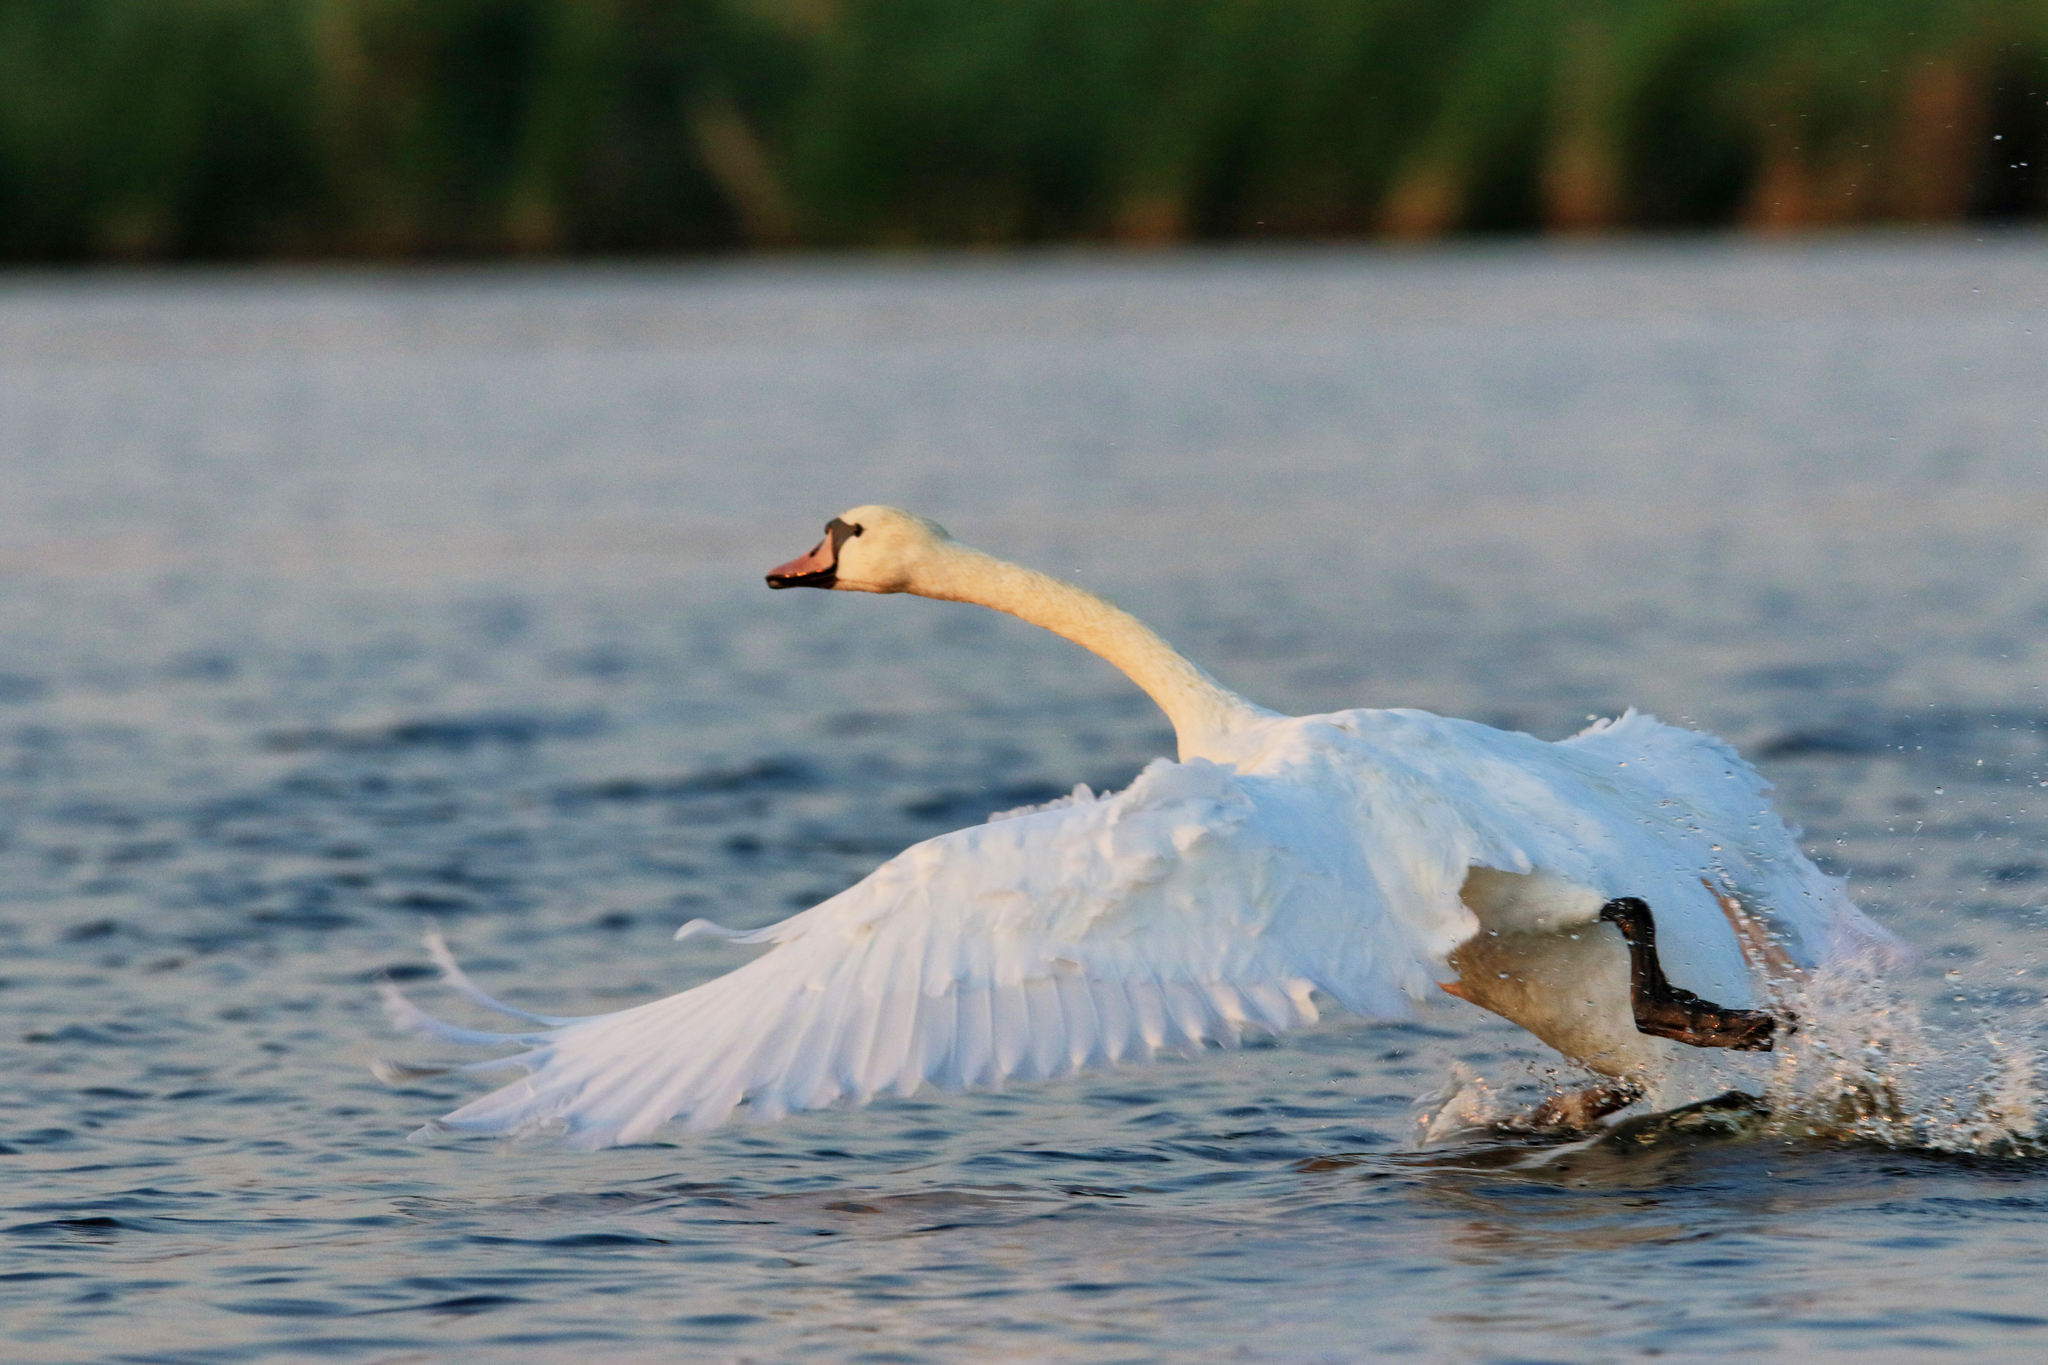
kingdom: Animalia
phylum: Chordata
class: Aves
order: Anseriformes
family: Anatidae
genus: Cygnus
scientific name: Cygnus olor
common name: Mute swan
